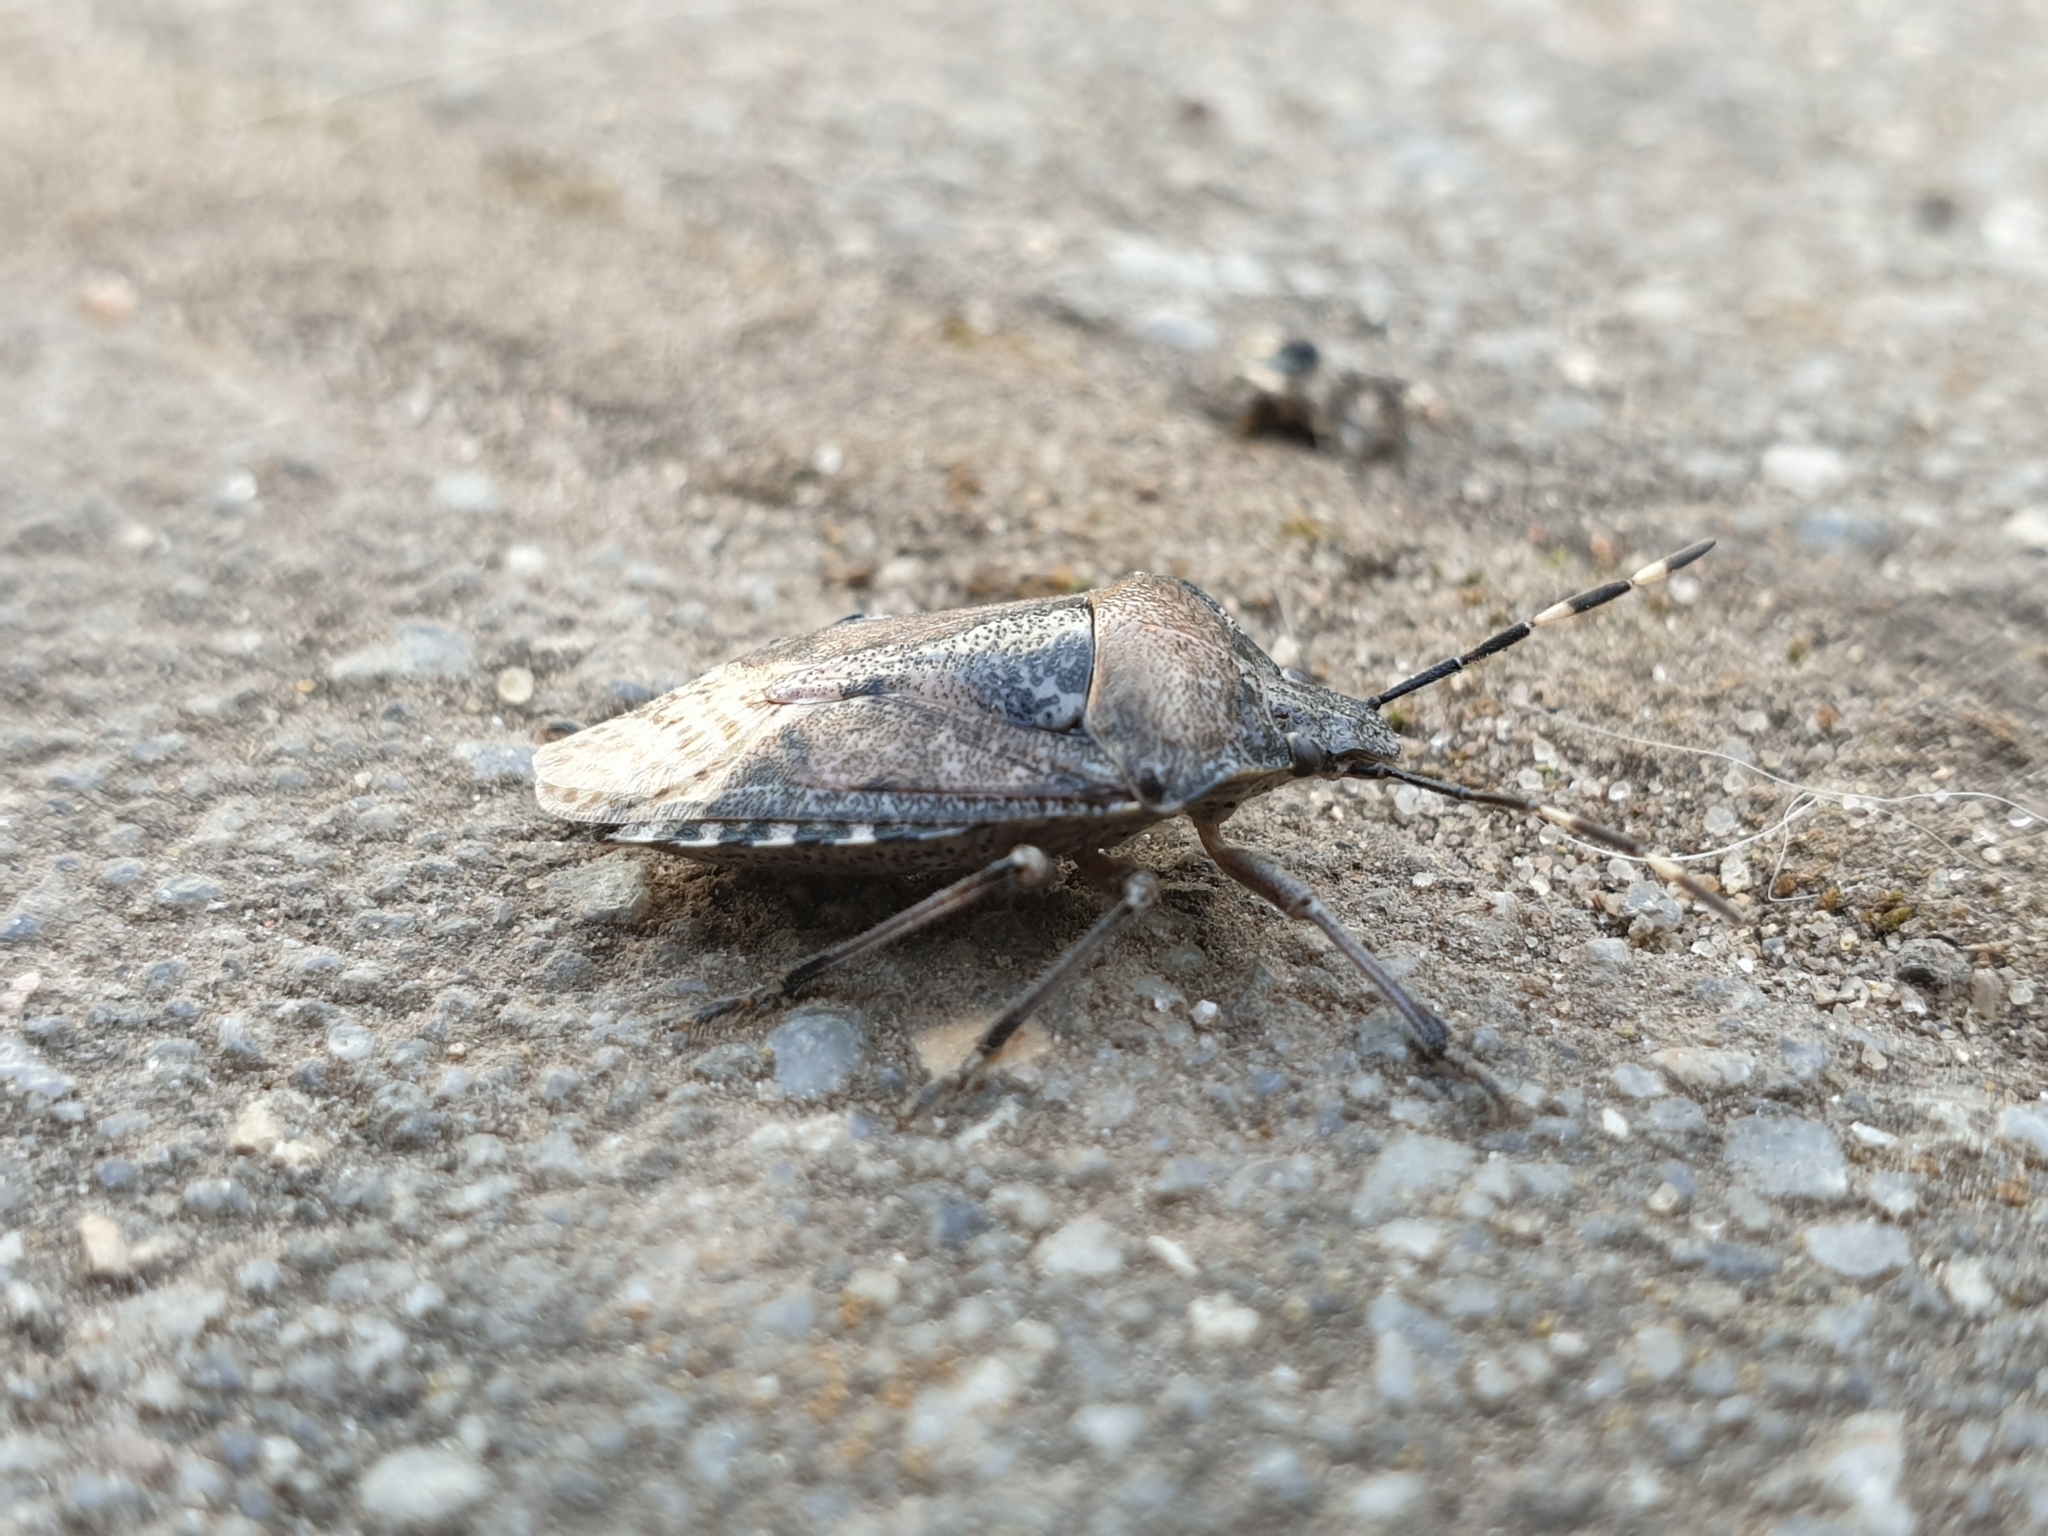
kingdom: Animalia
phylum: Arthropoda
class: Insecta
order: Hemiptera
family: Pentatomidae
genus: Rhaphigaster
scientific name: Rhaphigaster nebulosa
